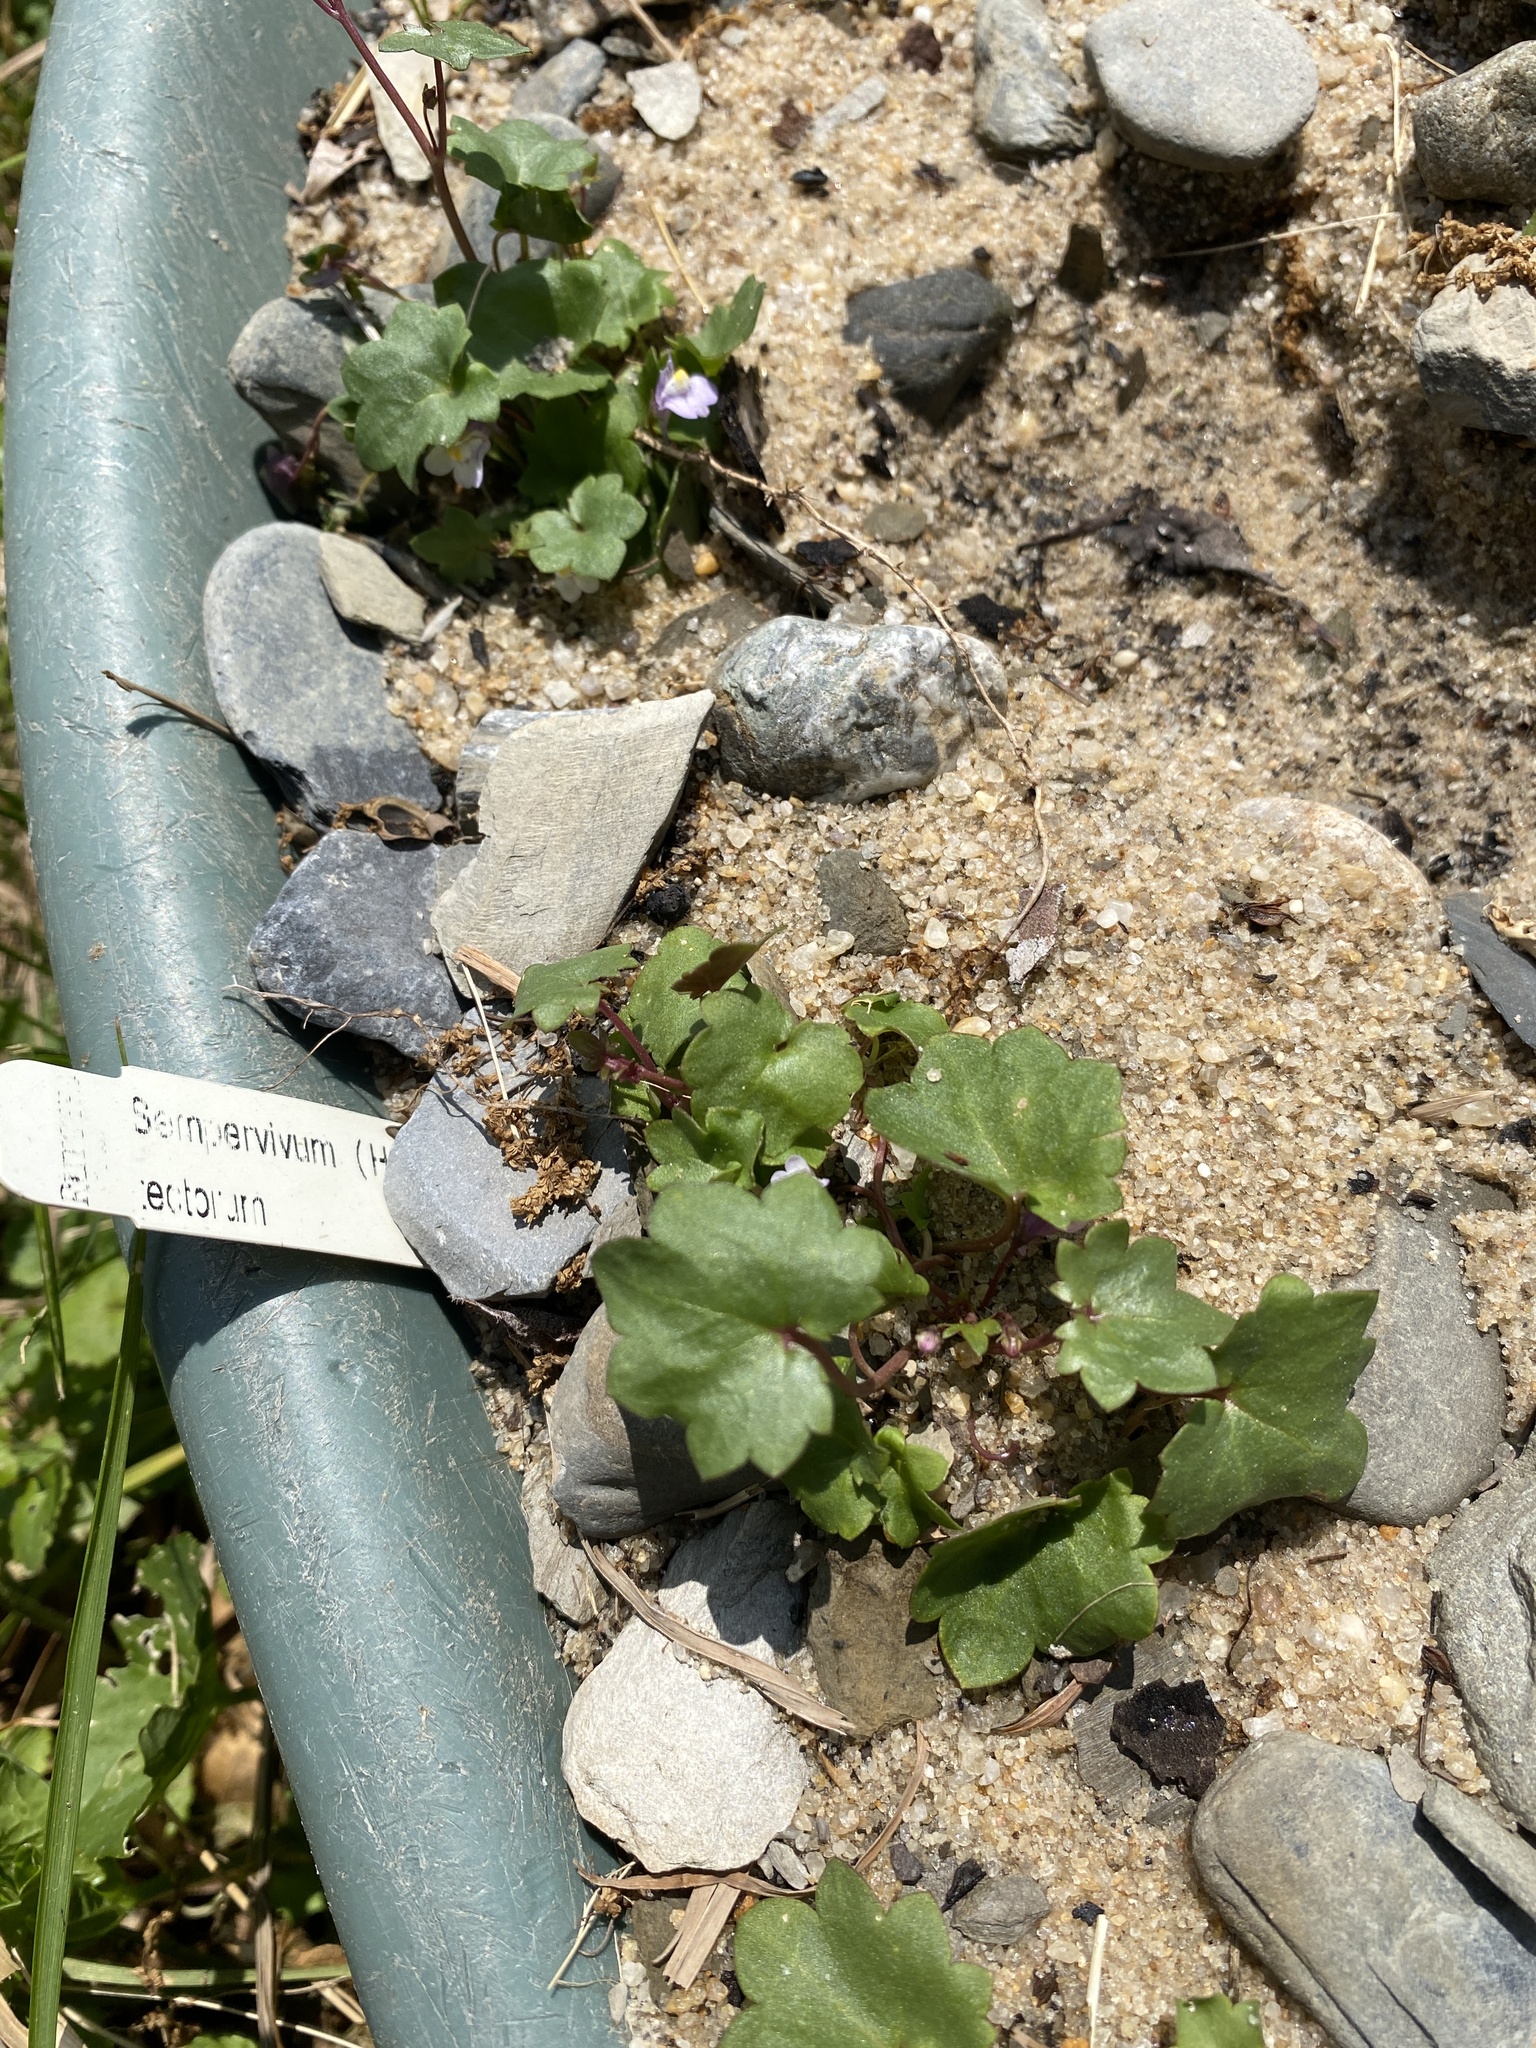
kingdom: Plantae
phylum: Tracheophyta
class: Magnoliopsida
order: Lamiales
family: Plantaginaceae
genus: Cymbalaria
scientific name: Cymbalaria muralis
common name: Ivy-leaved toadflax
